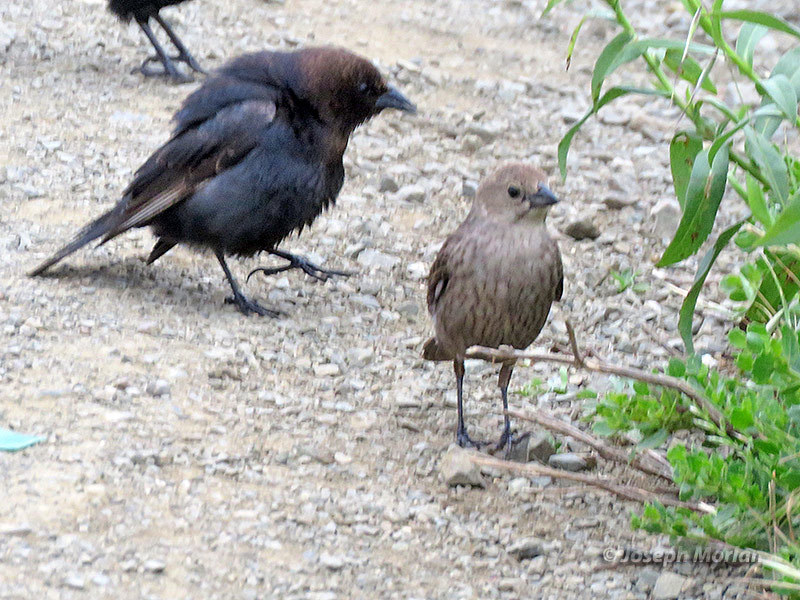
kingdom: Animalia
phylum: Chordata
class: Aves
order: Passeriformes
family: Icteridae
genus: Molothrus
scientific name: Molothrus ater
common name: Brown-headed cowbird
